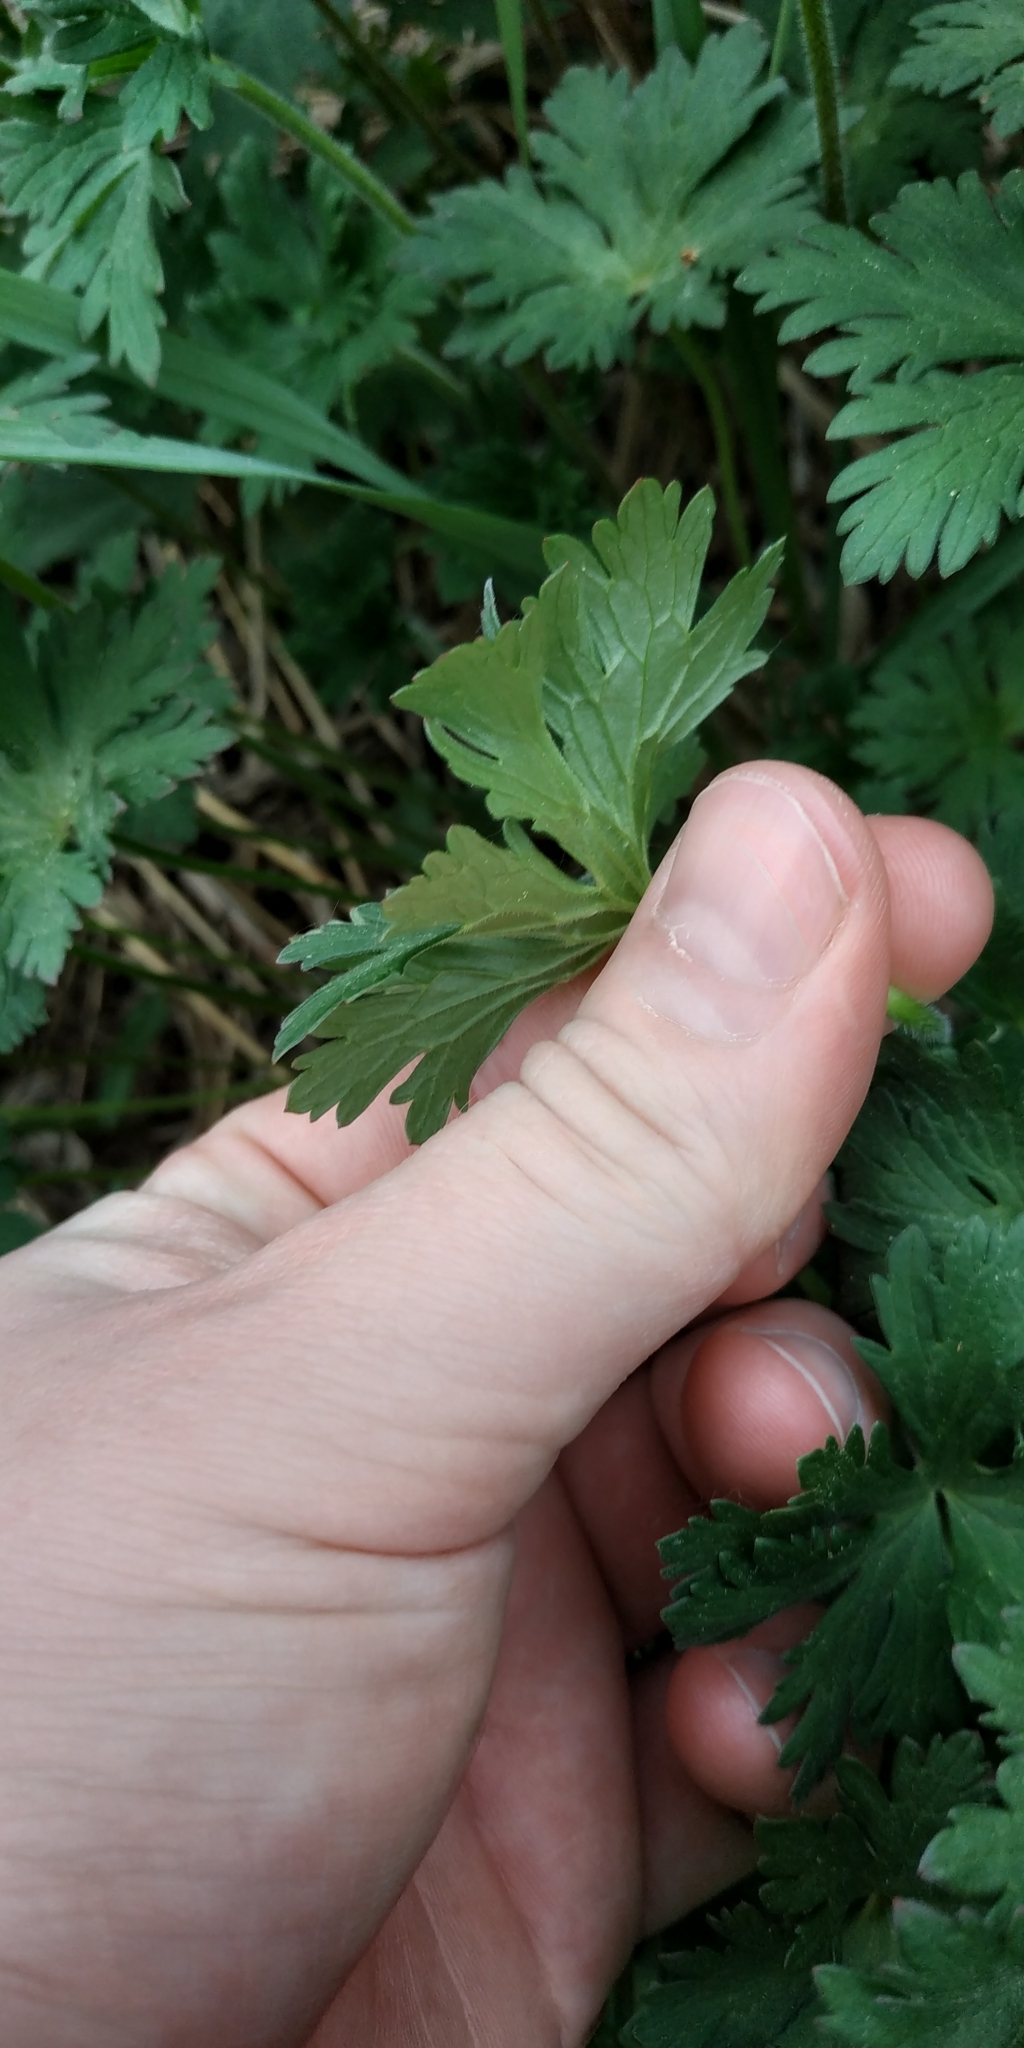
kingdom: Plantae
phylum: Tracheophyta
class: Magnoliopsida
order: Geraniales
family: Geraniaceae
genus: Geranium
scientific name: Geranium sibiricum
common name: Siberian crane's-bill
